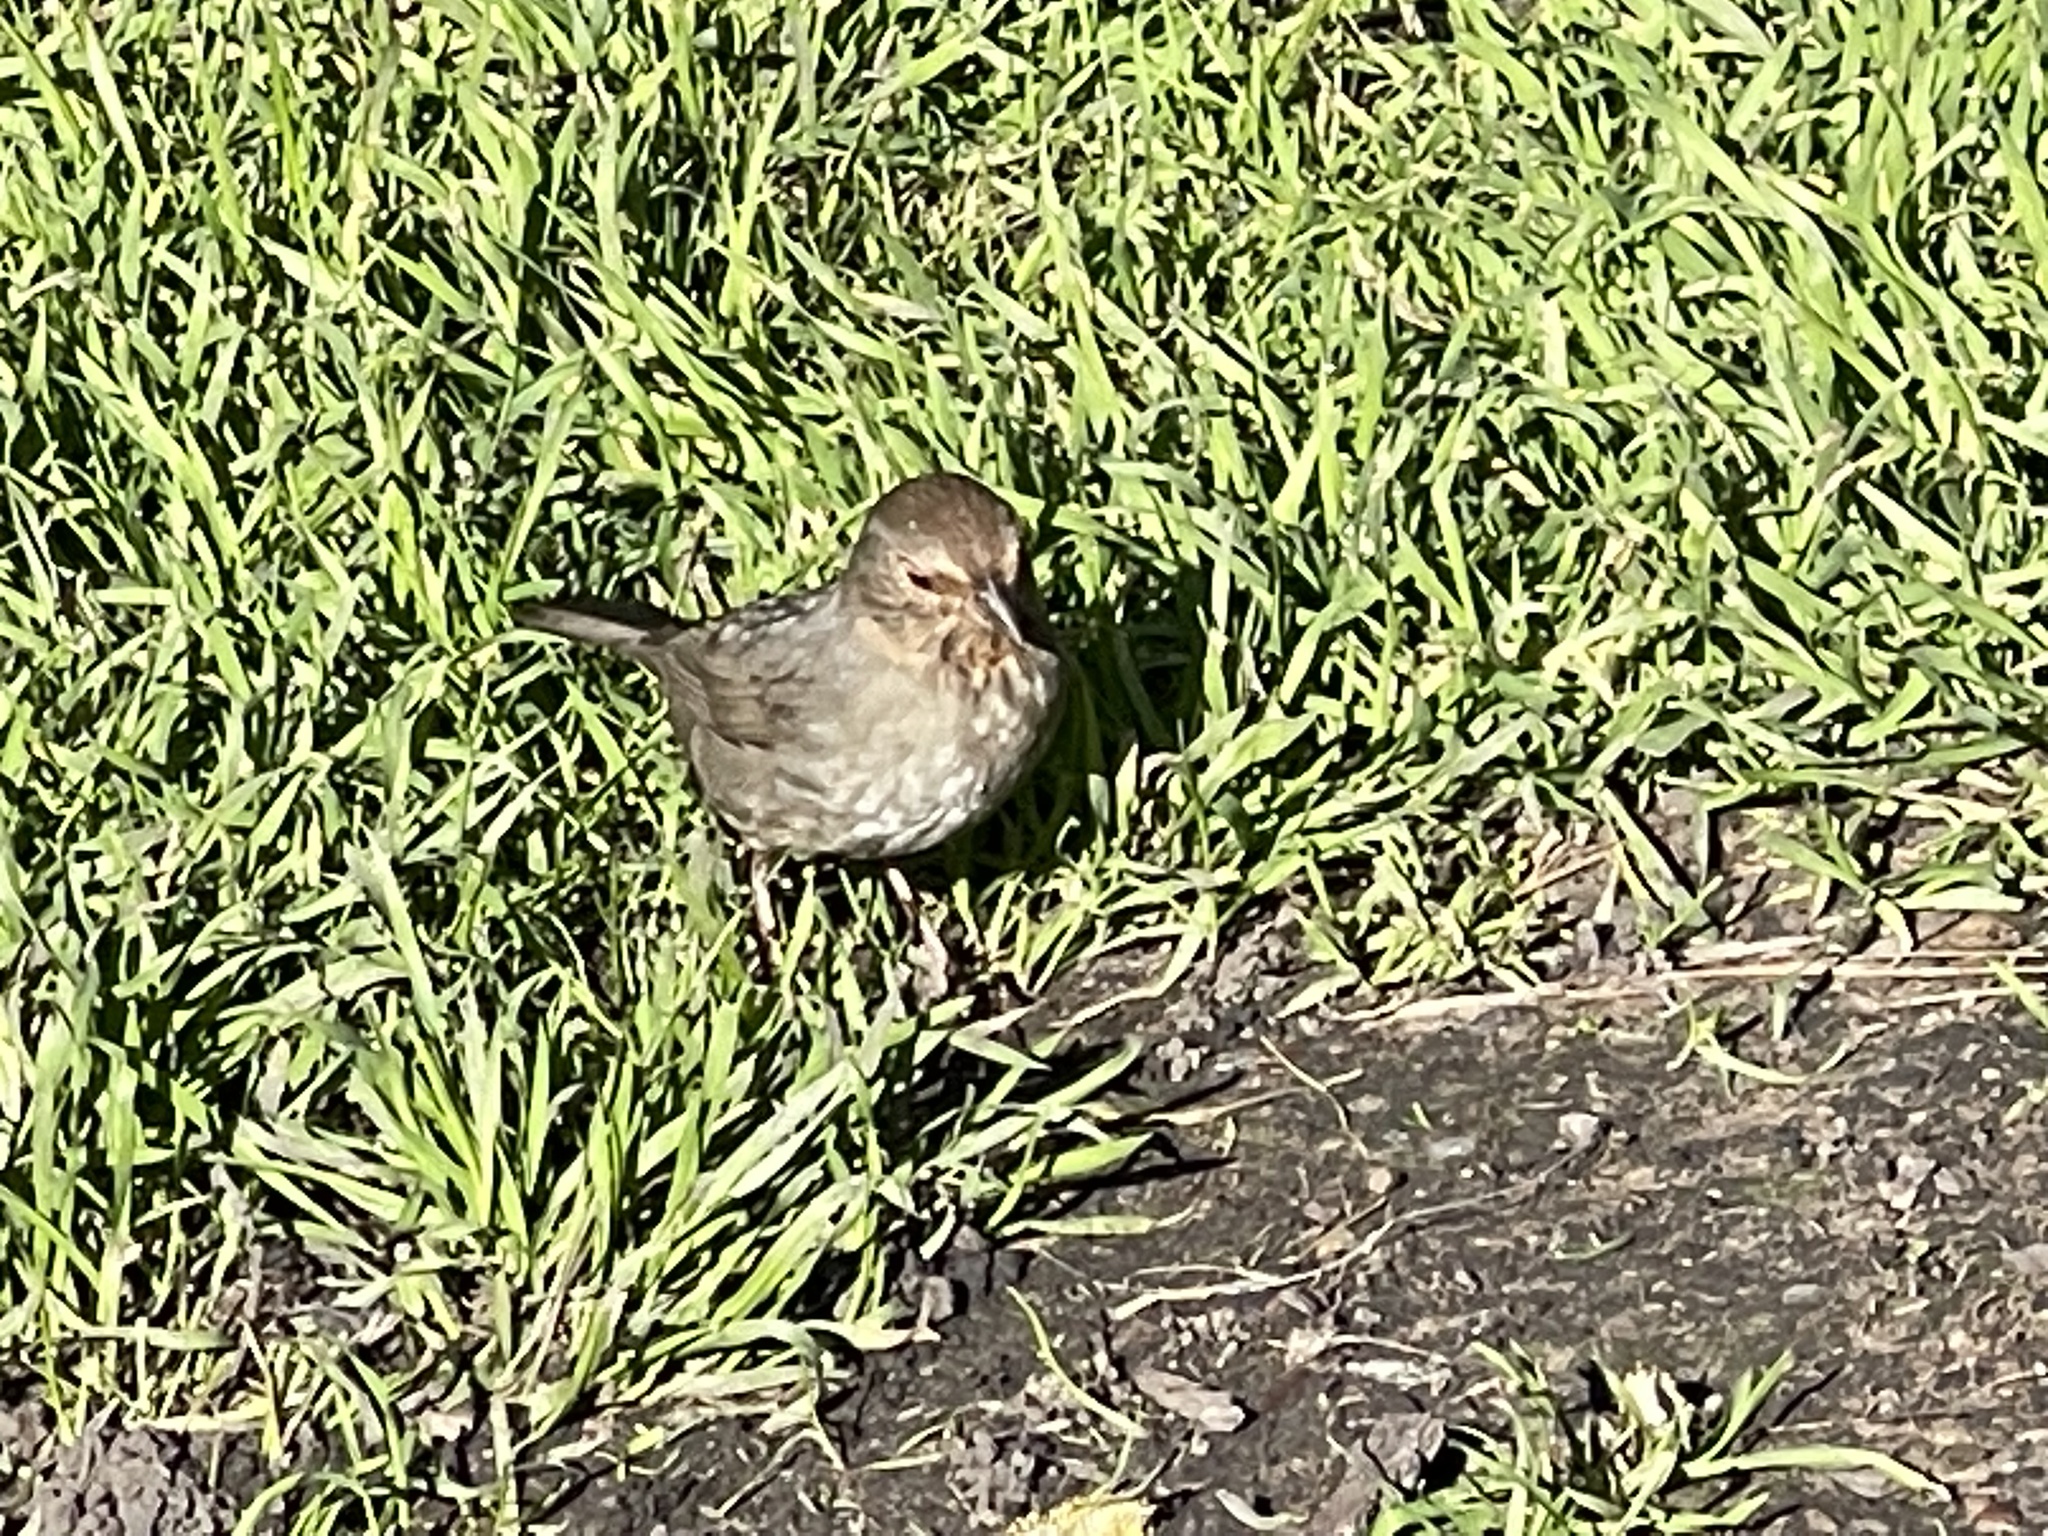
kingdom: Animalia
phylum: Chordata
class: Aves
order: Passeriformes
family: Passerellidae
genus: Melozone
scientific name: Melozone crissalis
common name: California towhee
